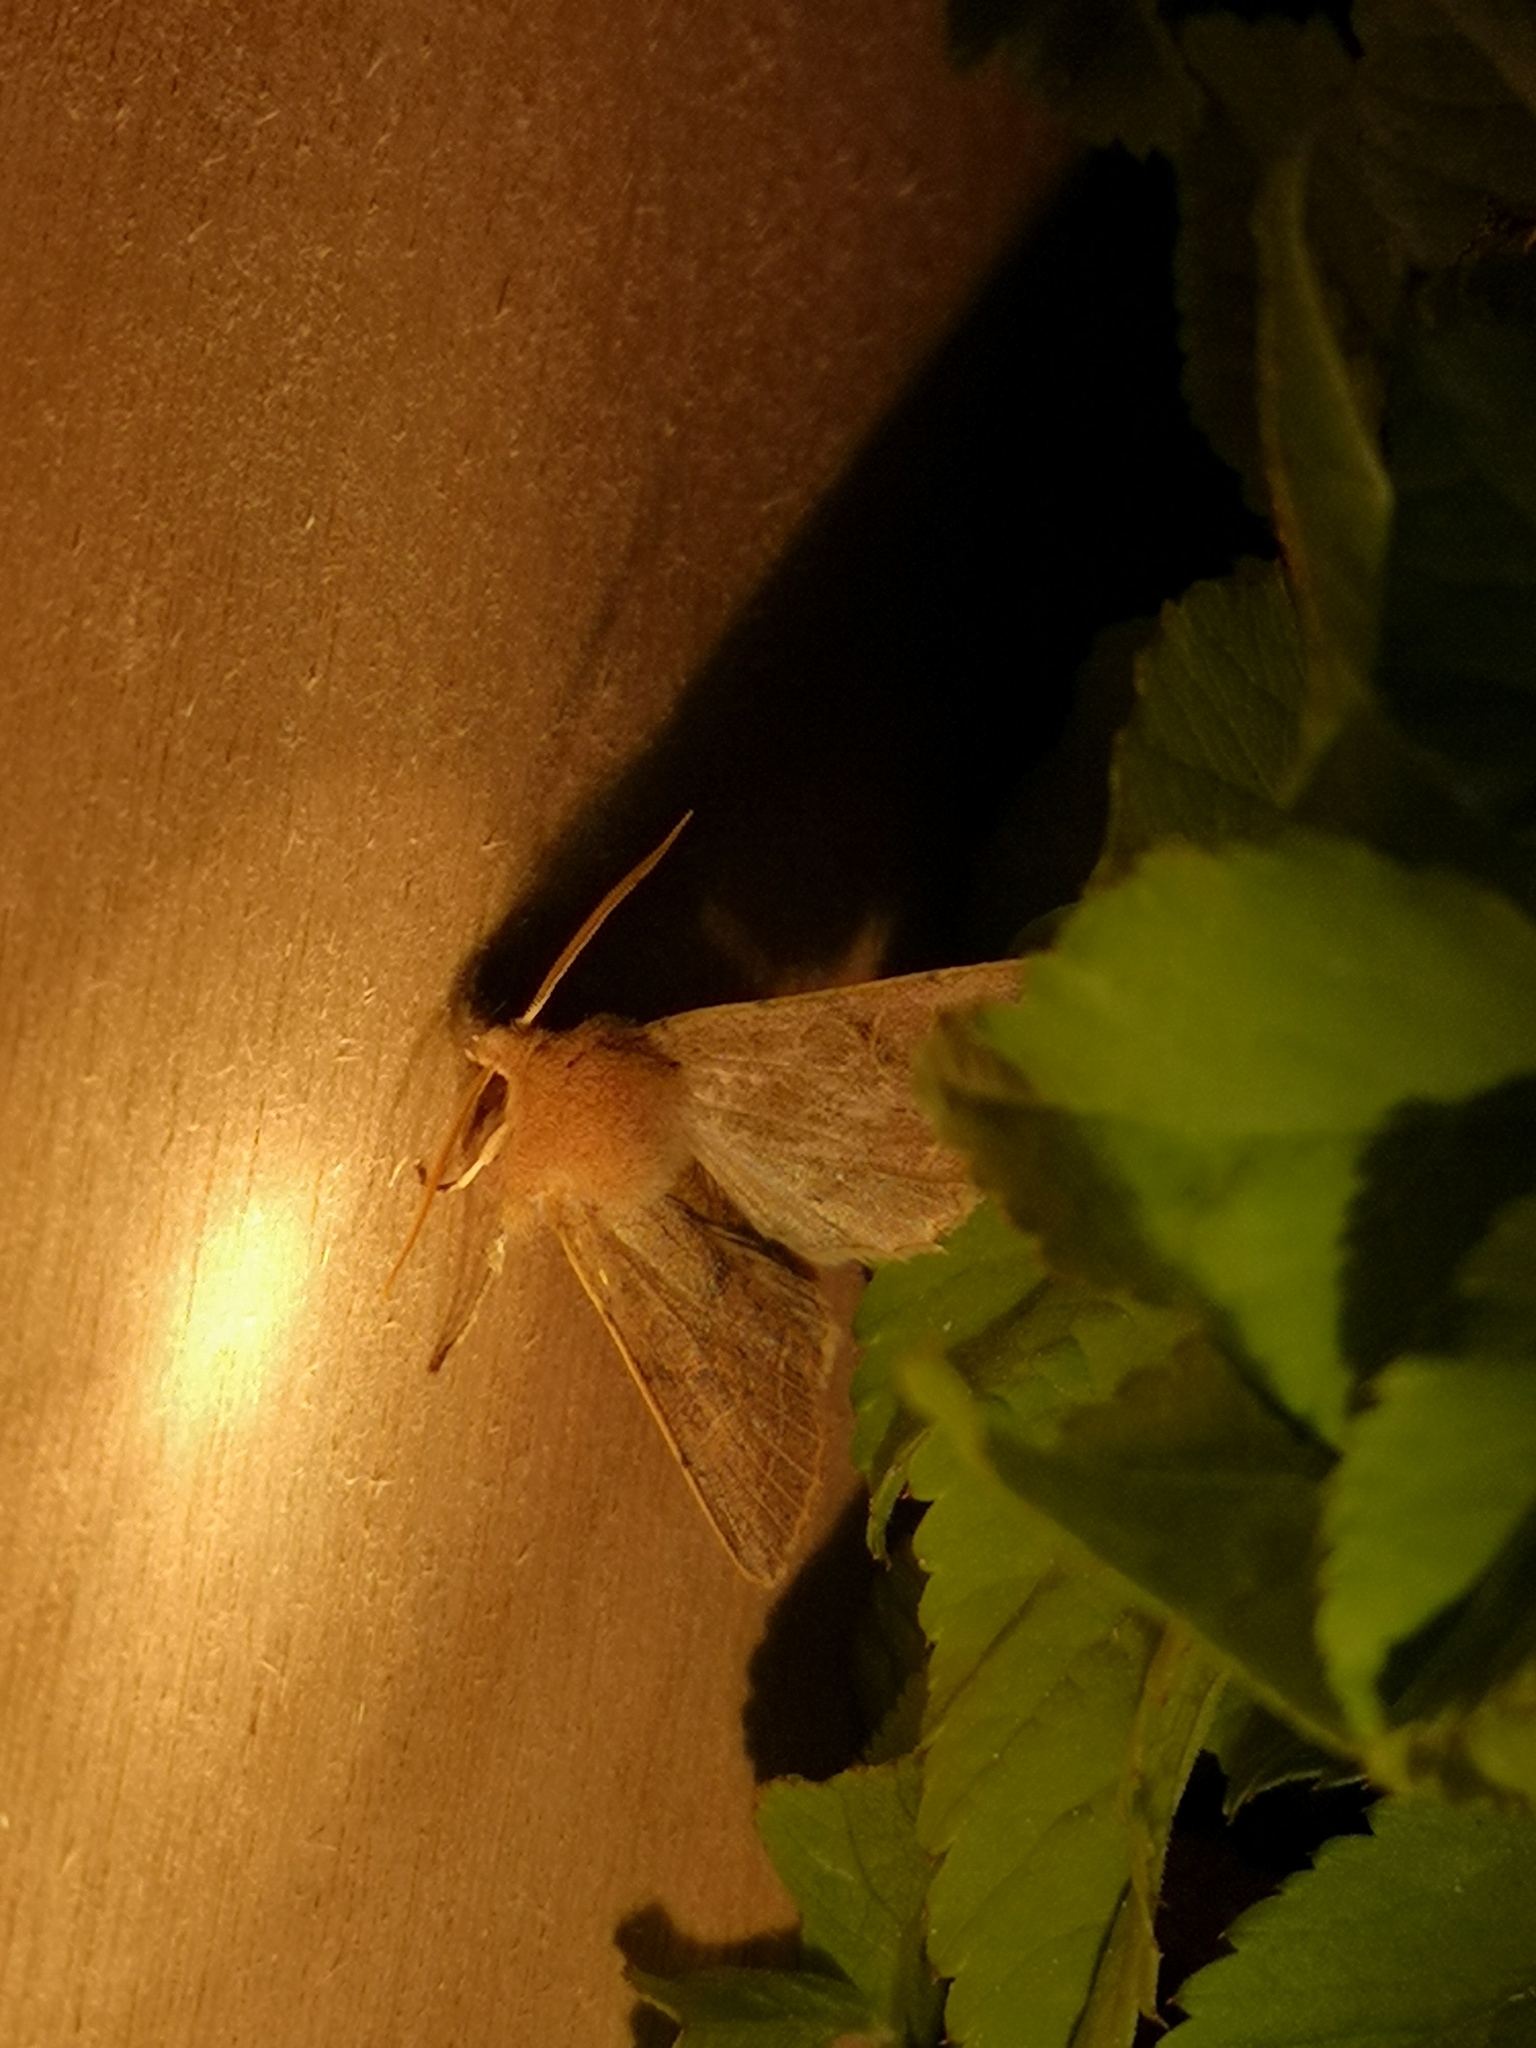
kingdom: Animalia
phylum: Arthropoda
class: Insecta
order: Lepidoptera
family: Noctuidae
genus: Orthosia
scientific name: Orthosia cerasi
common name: Common quaker
